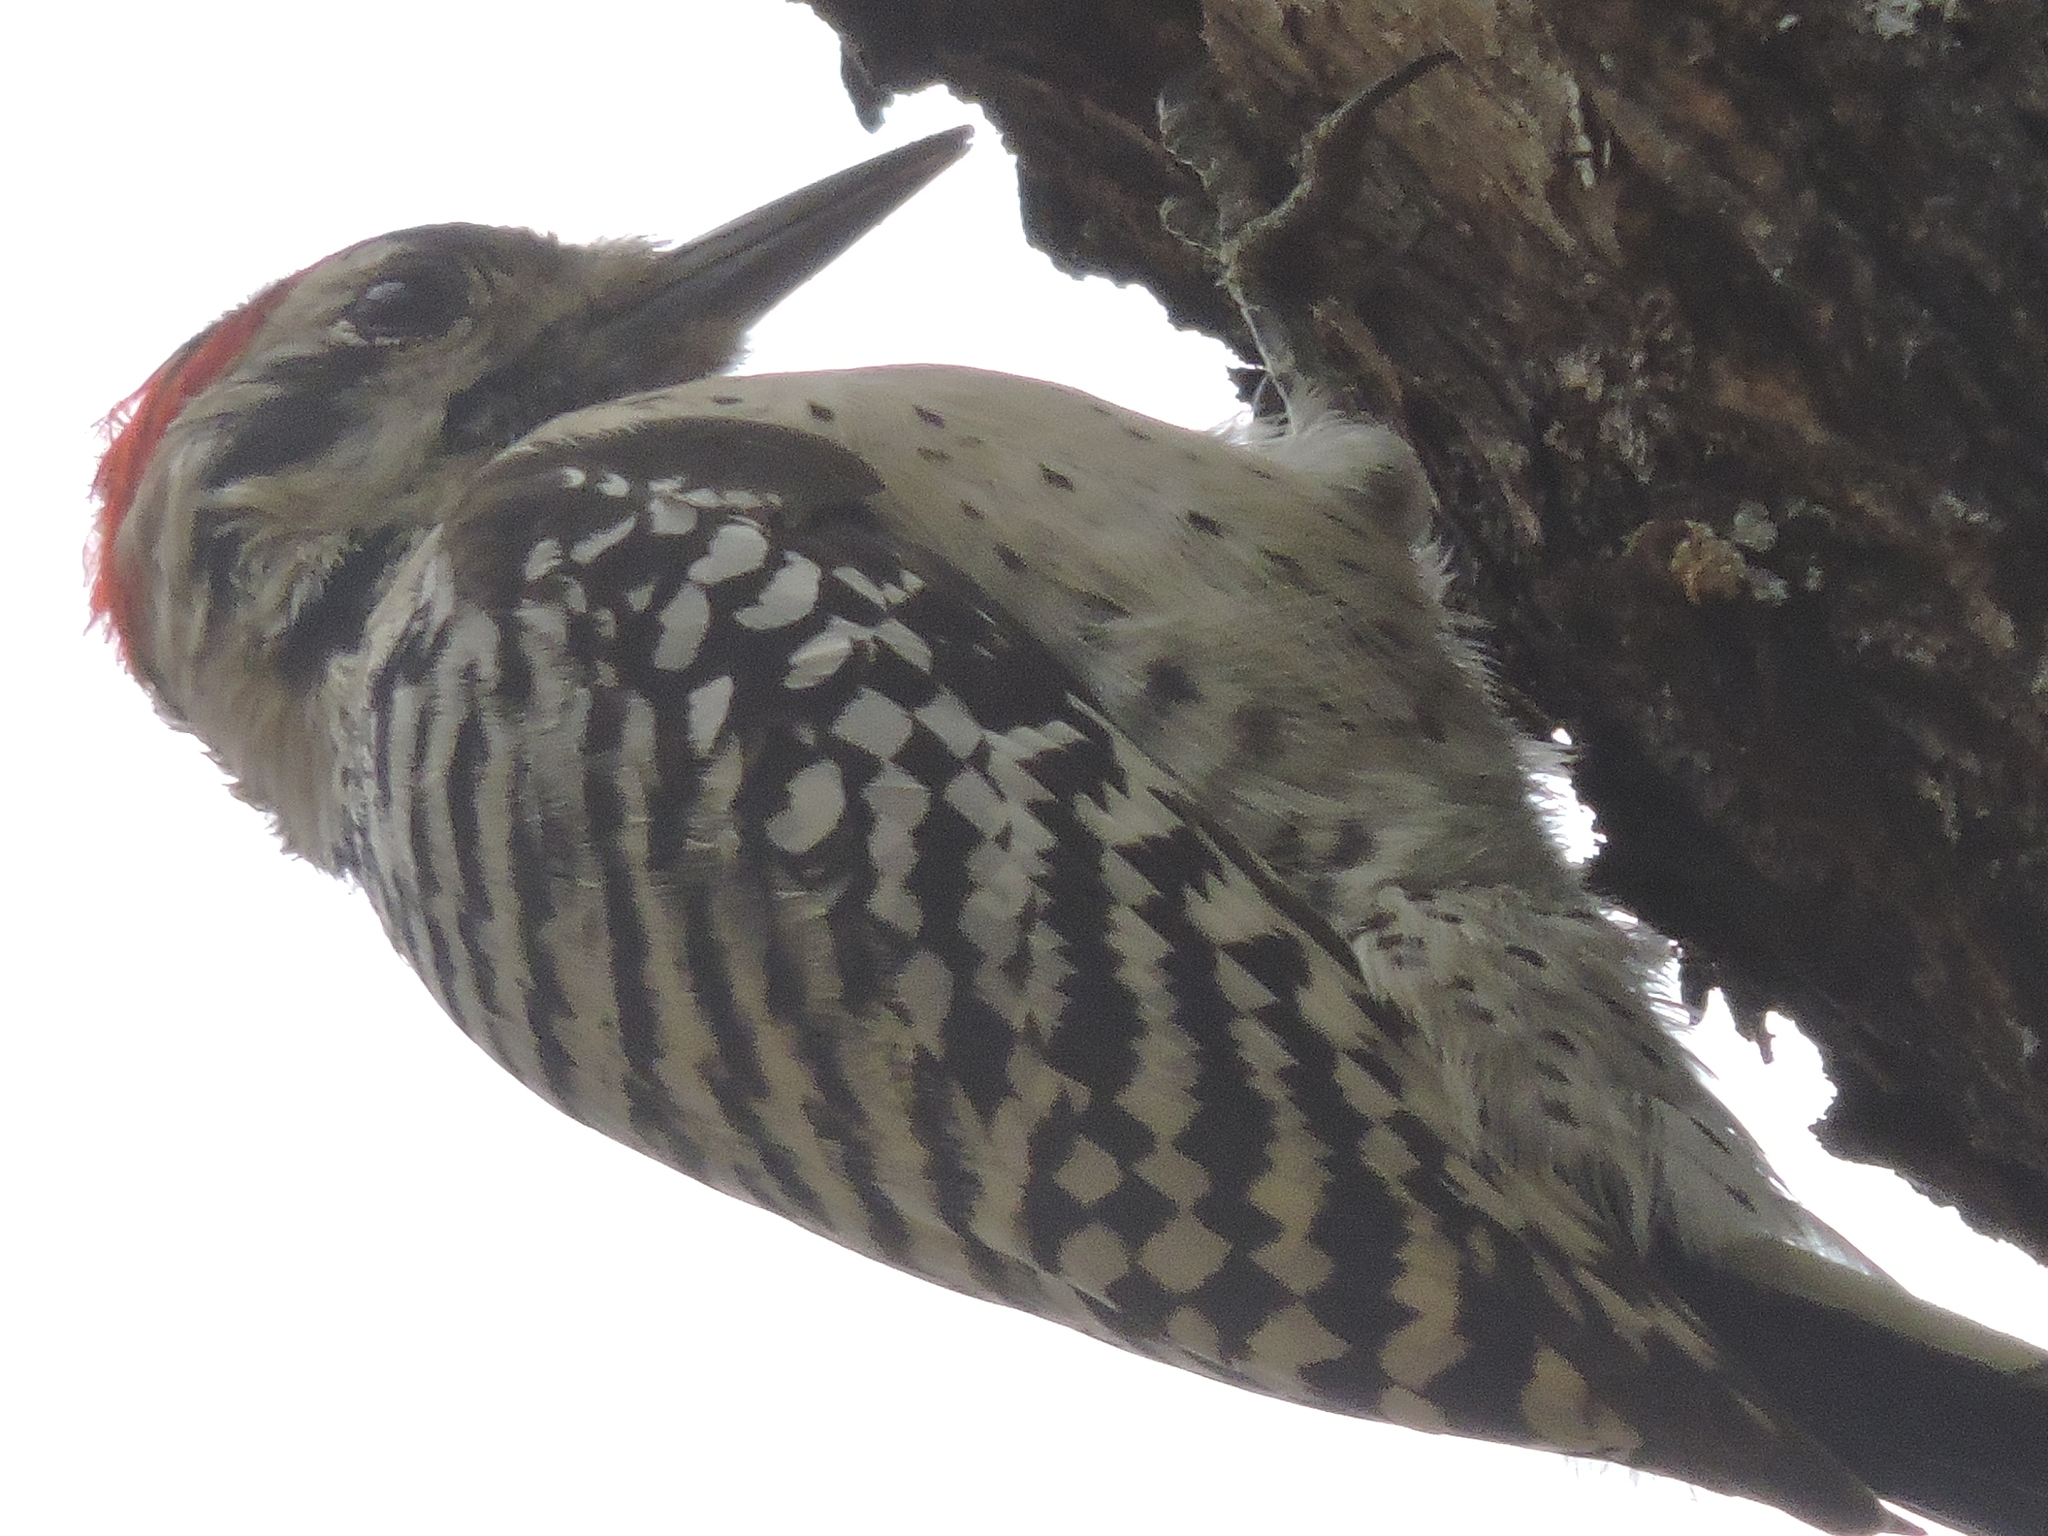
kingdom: Animalia
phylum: Chordata
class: Aves
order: Piciformes
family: Picidae
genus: Dryobates
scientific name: Dryobates scalaris
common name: Ladder-backed woodpecker
